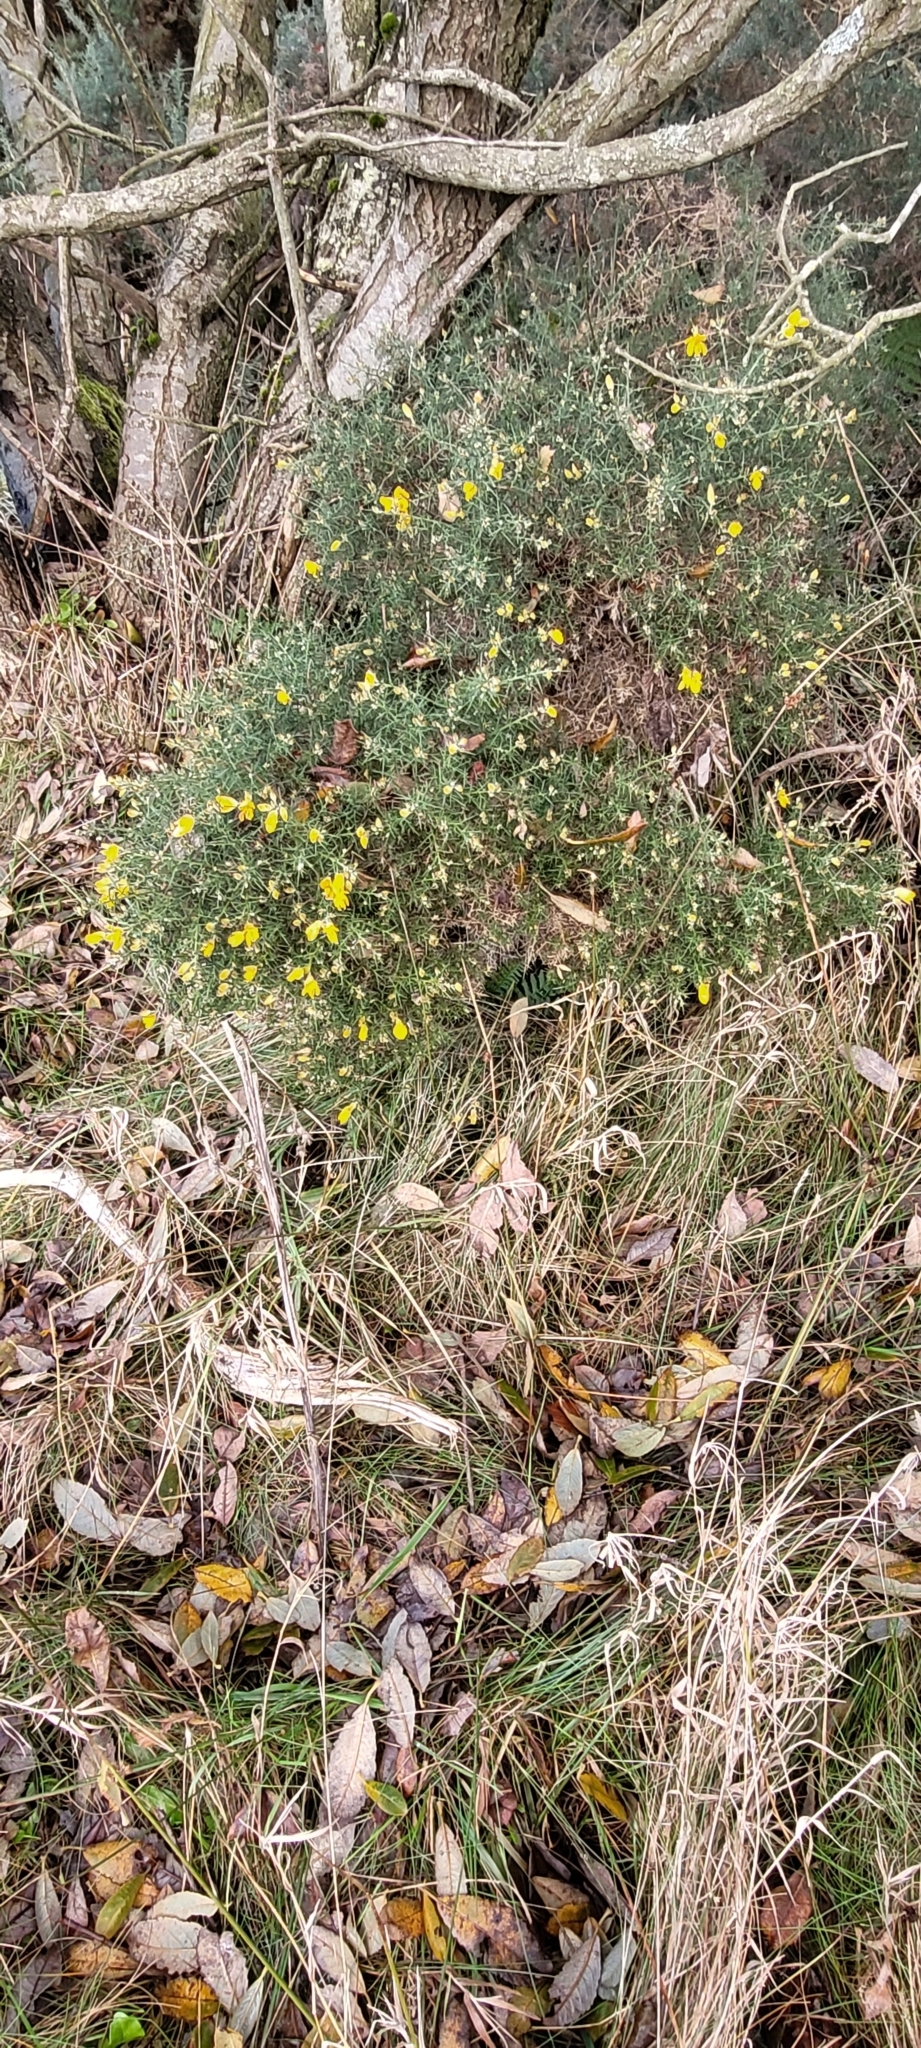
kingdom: Plantae
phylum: Tracheophyta
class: Magnoliopsida
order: Fabales
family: Fabaceae
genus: Ulex
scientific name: Ulex europaeus
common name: Common gorse
